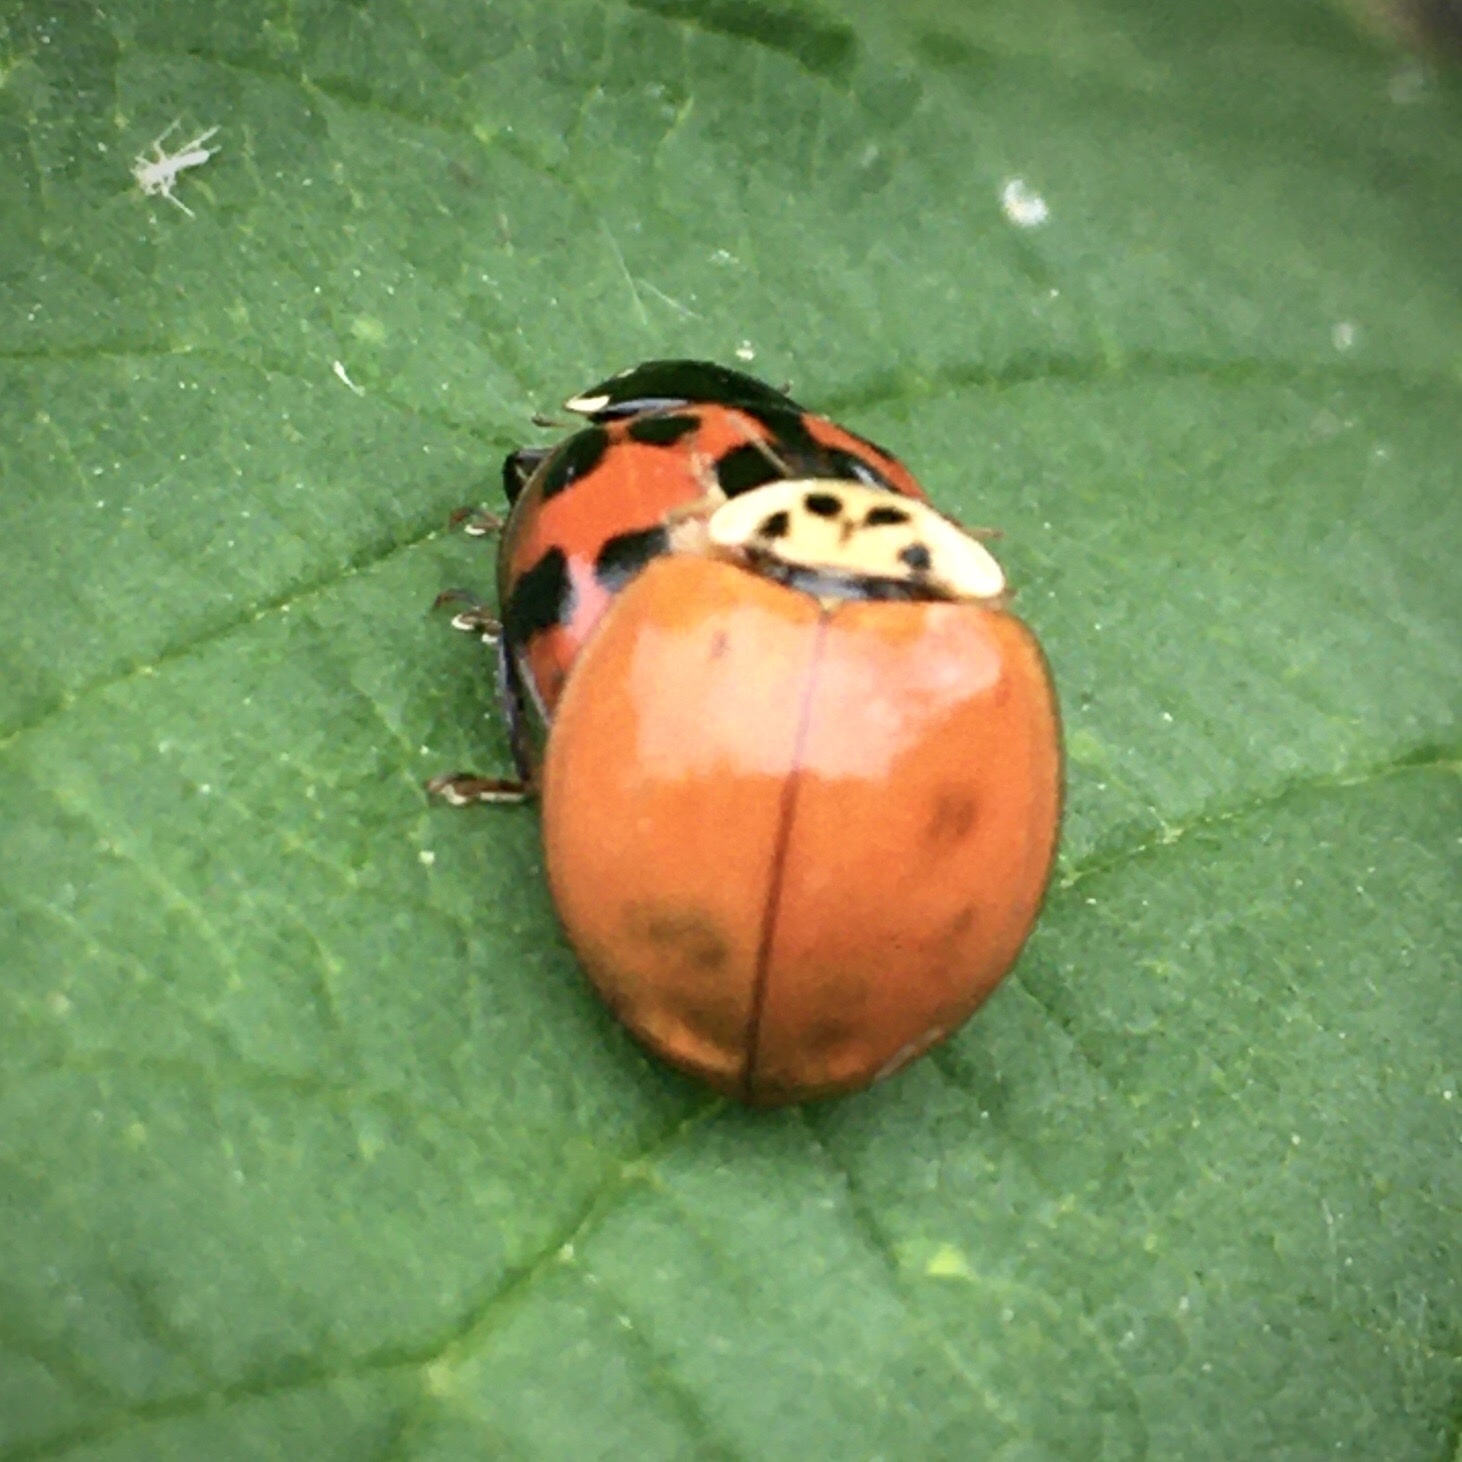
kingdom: Animalia
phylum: Arthropoda
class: Insecta
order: Coleoptera
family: Coccinellidae
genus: Harmonia
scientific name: Harmonia axyridis
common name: Harlequin ladybird
